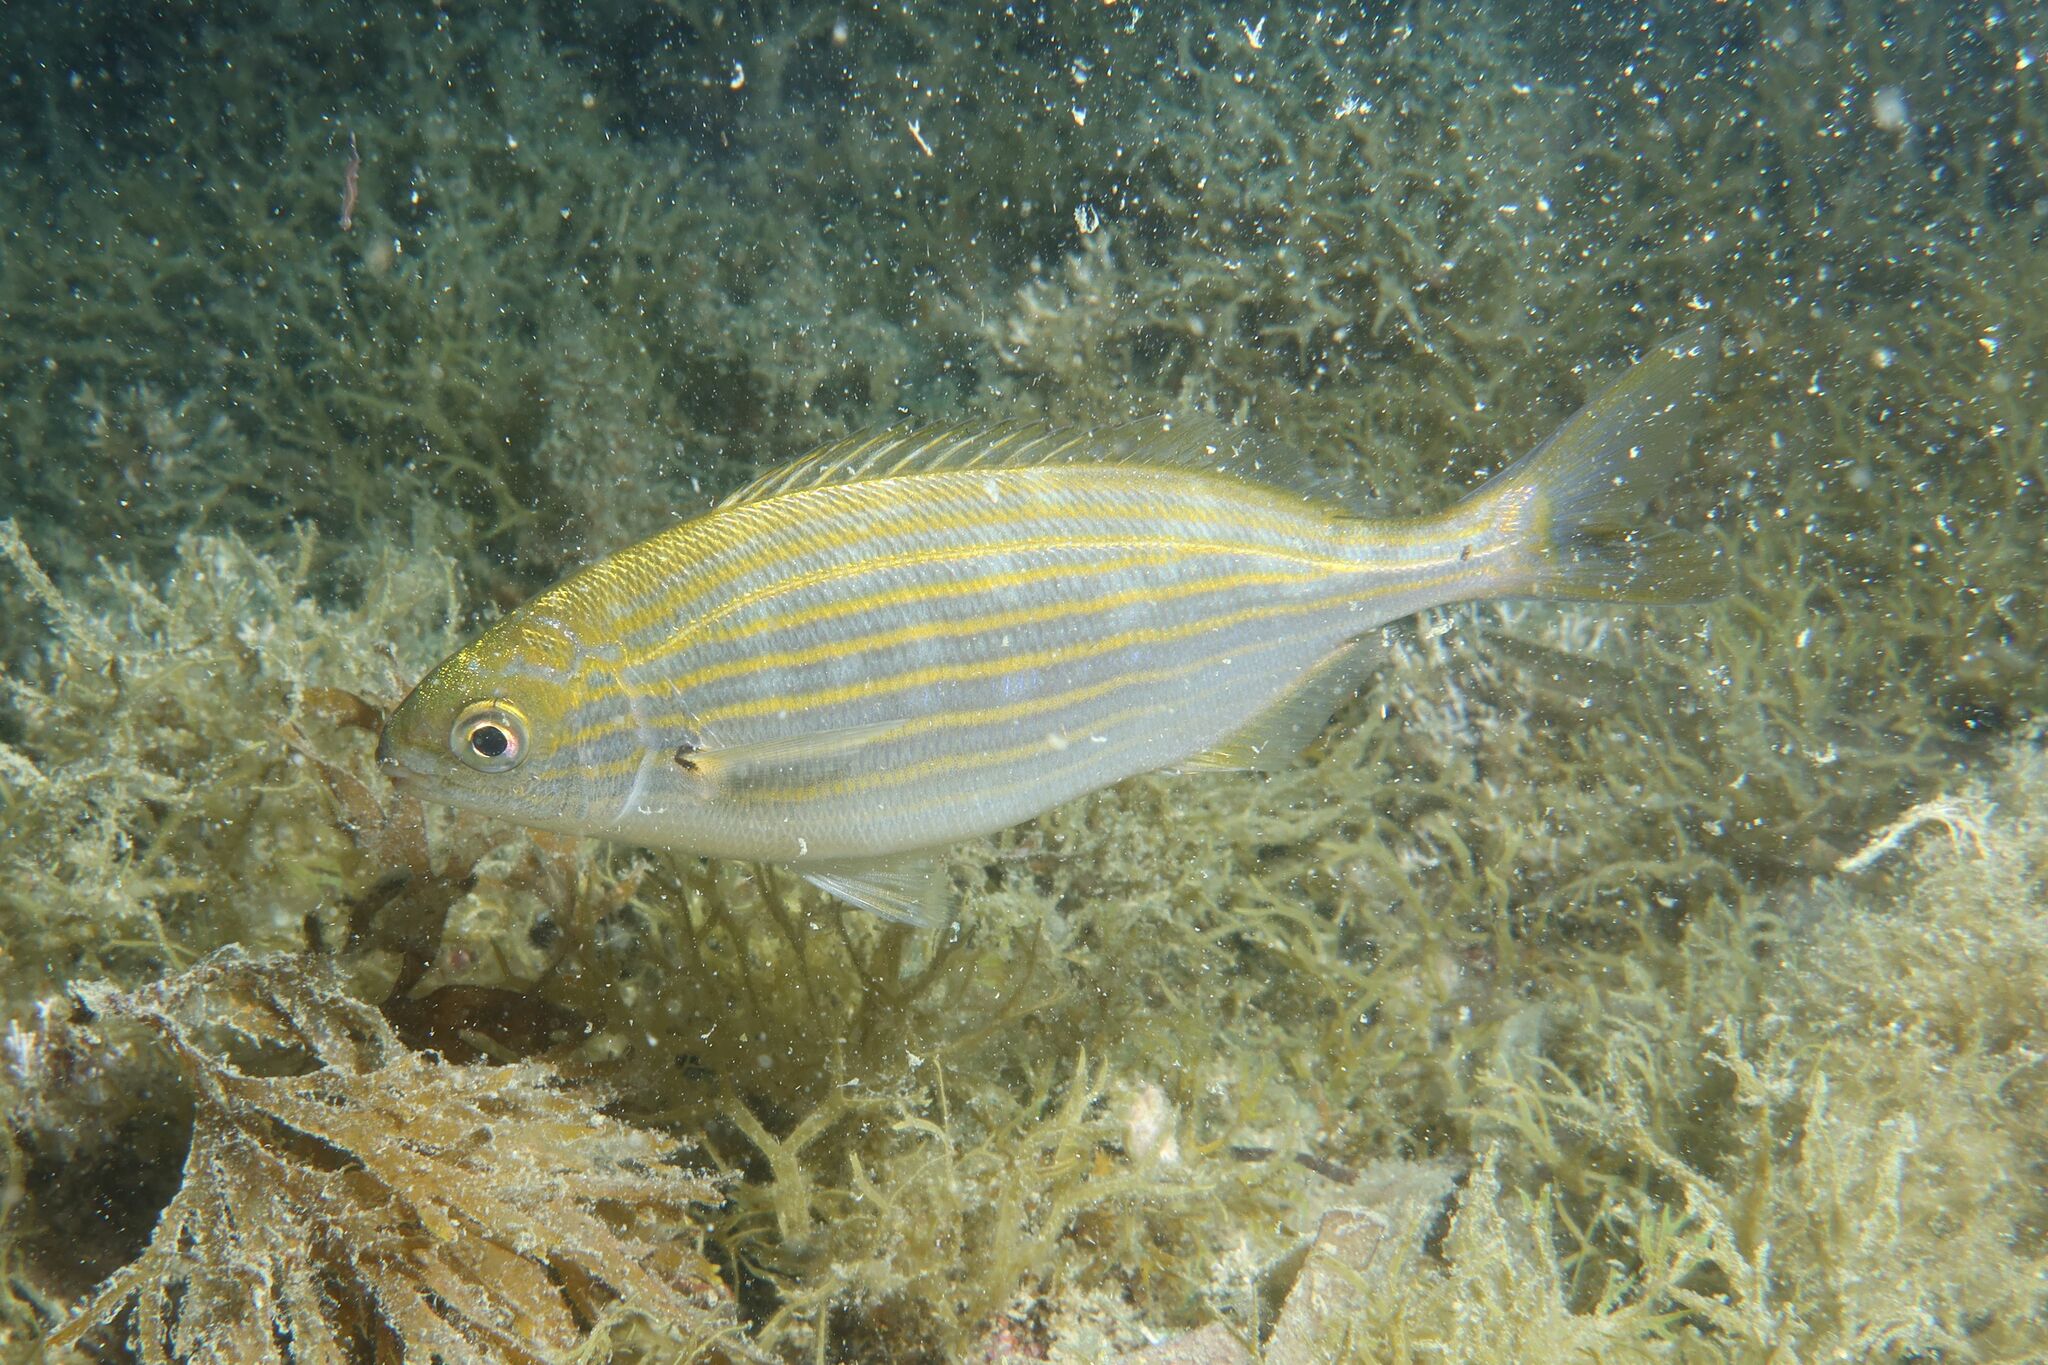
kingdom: Animalia
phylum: Chordata
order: Perciformes
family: Sparidae
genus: Sarpa
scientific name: Sarpa salpa
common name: Salema
